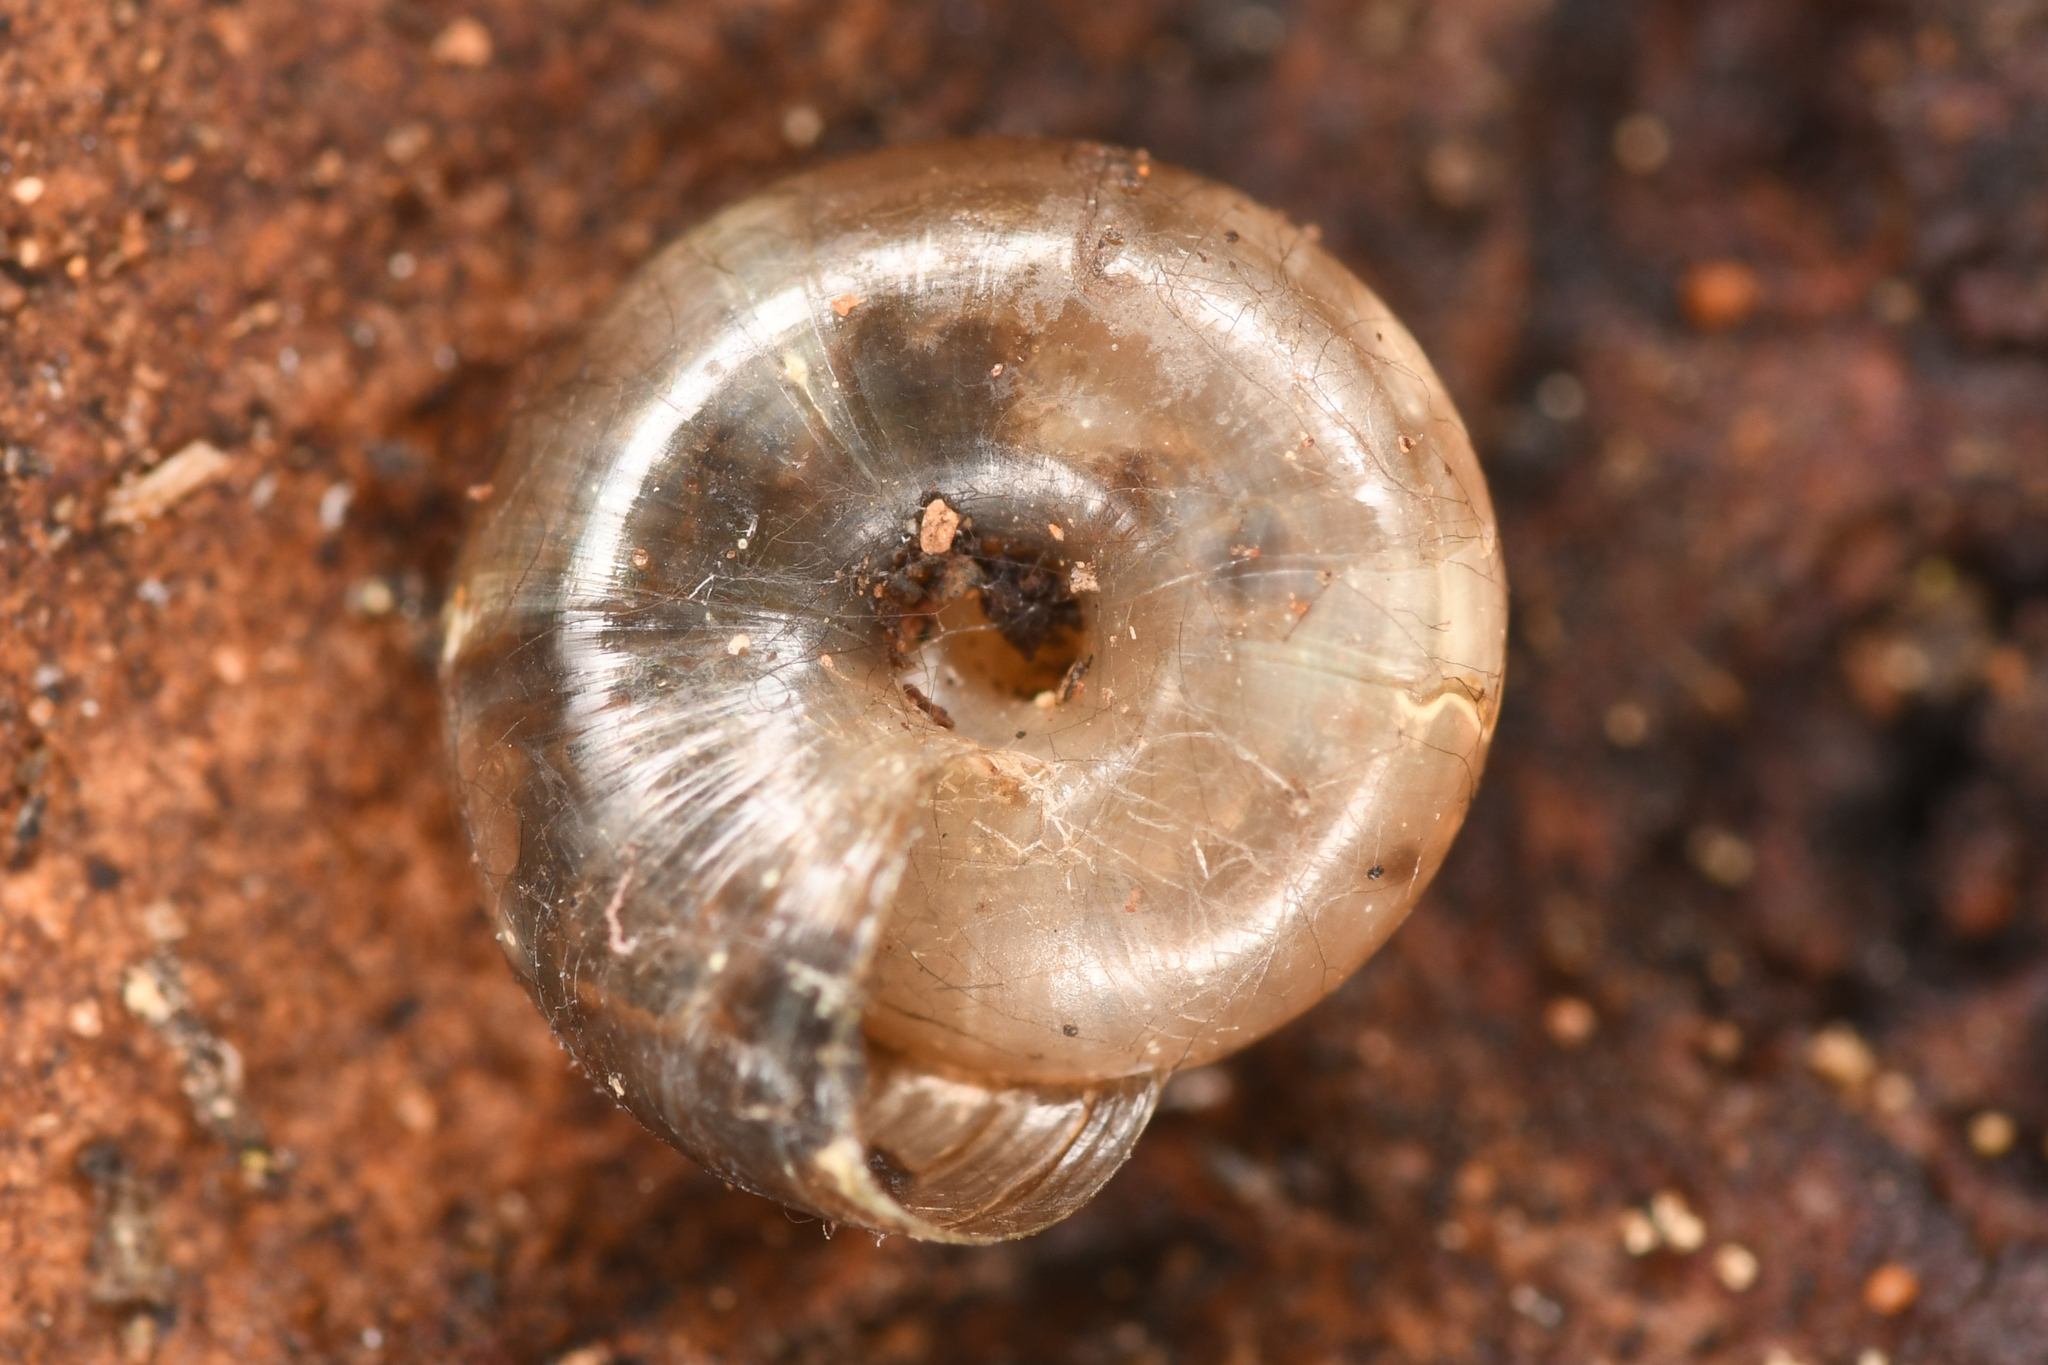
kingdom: Animalia
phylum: Mollusca
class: Gastropoda
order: Stylommatophora
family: Gastrodontidae
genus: Zonitoides
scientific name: Zonitoides arboreus
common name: Quick gloss
